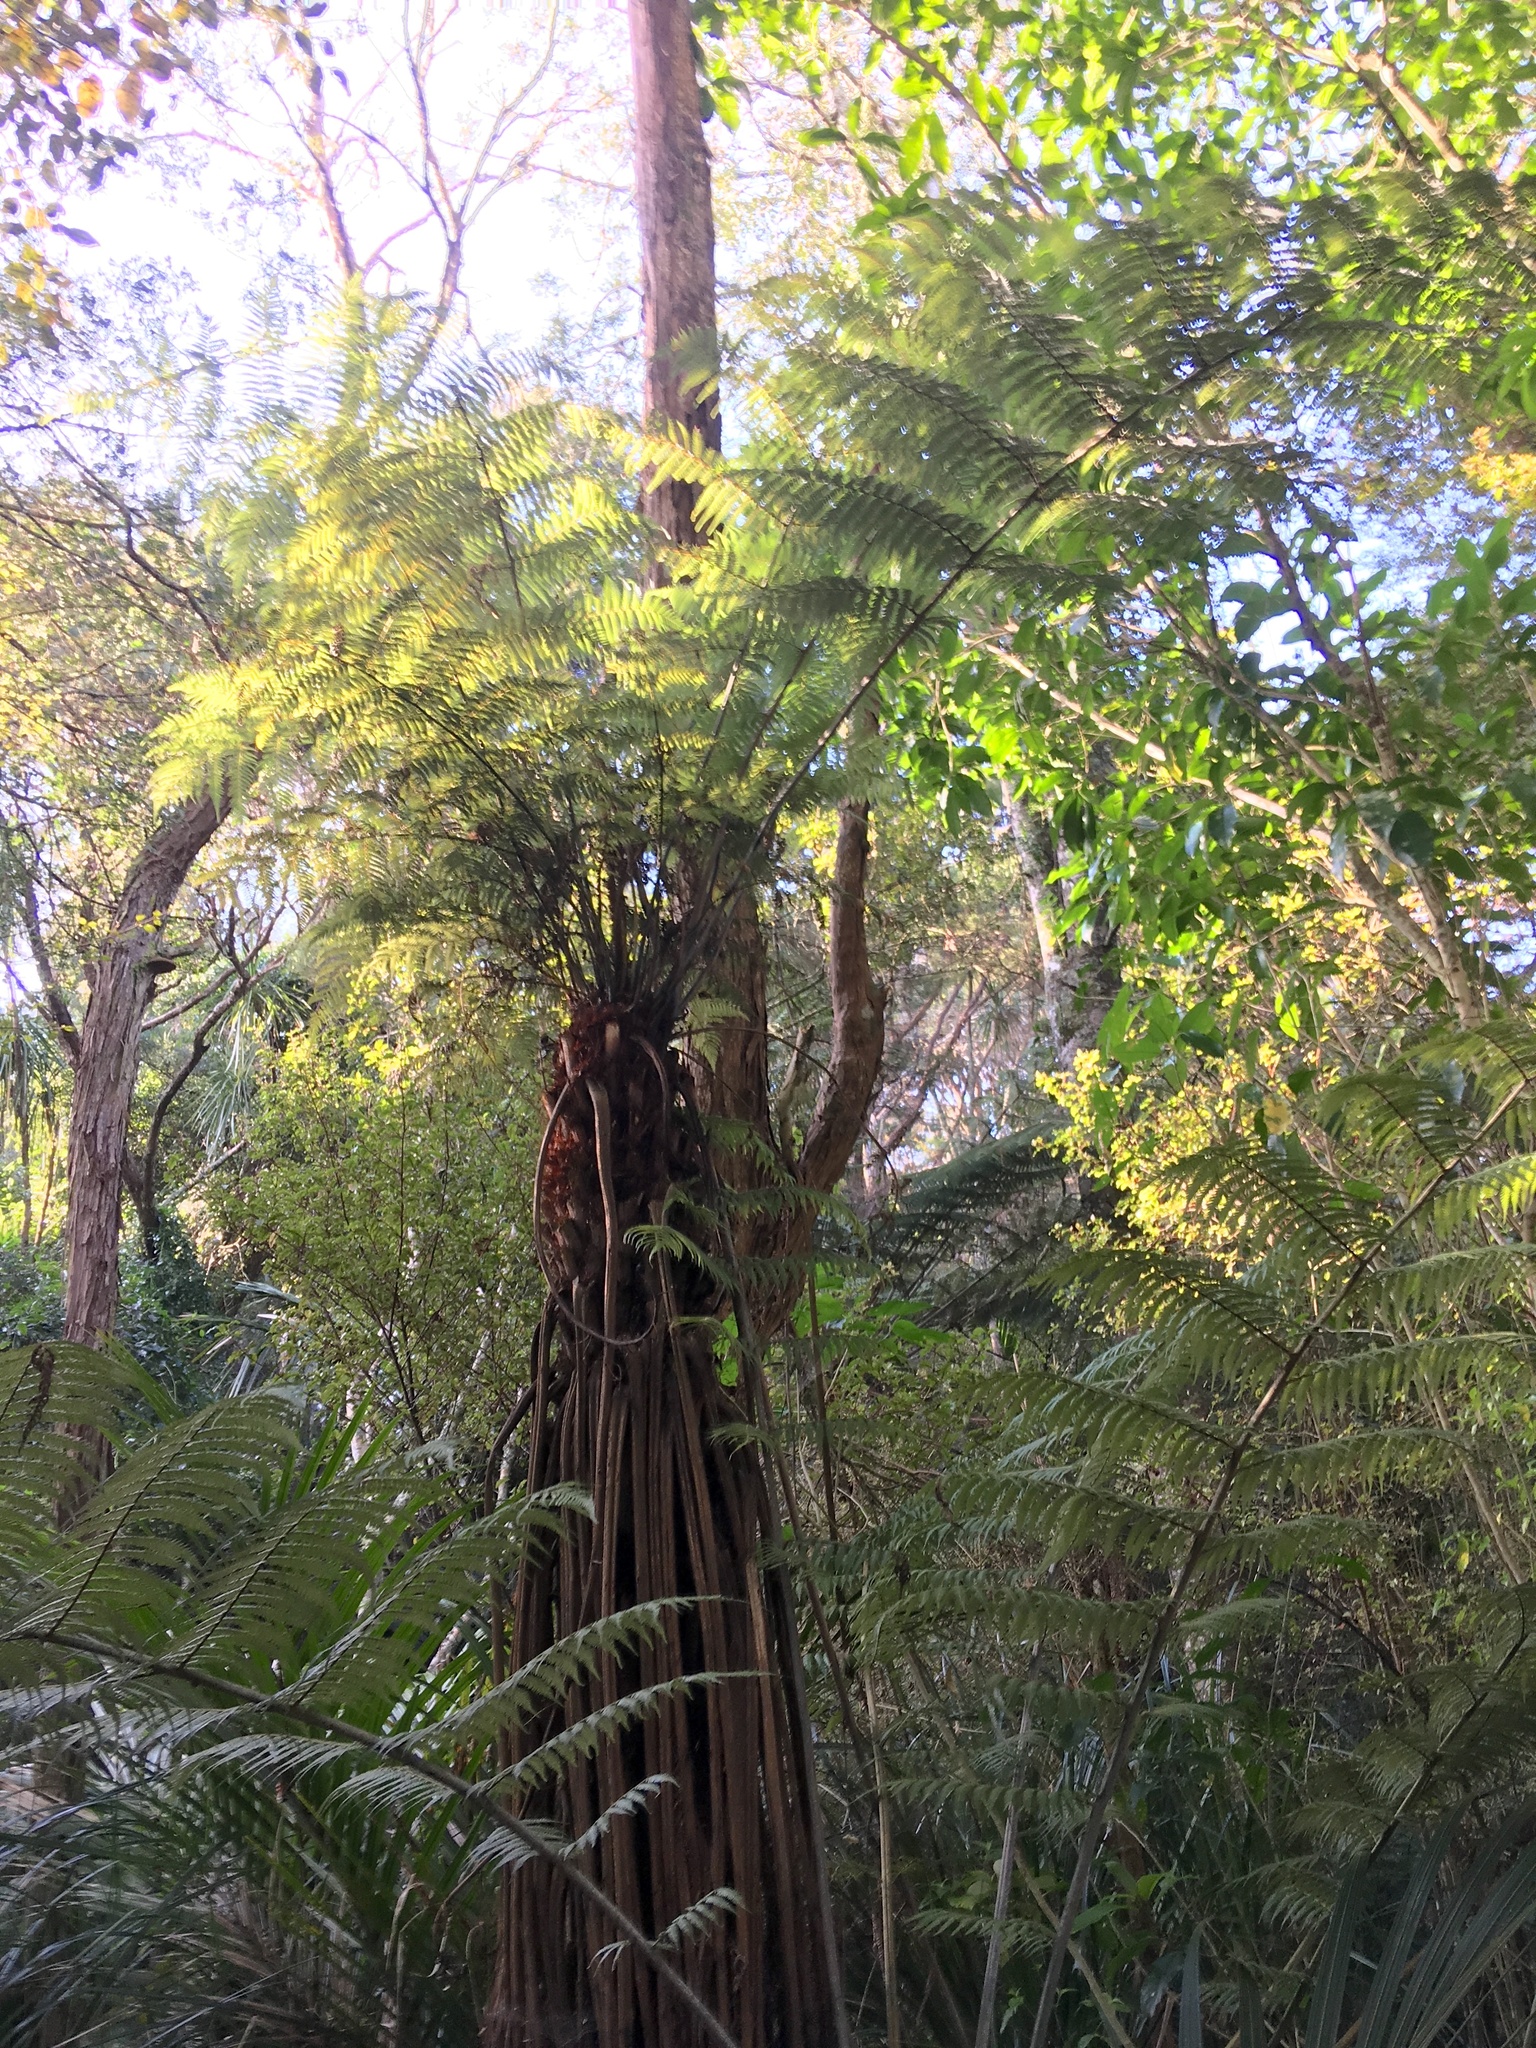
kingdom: Plantae
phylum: Tracheophyta
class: Polypodiopsida
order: Cyatheales
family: Cyatheaceae
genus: Alsophila
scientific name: Alsophila dealbata
